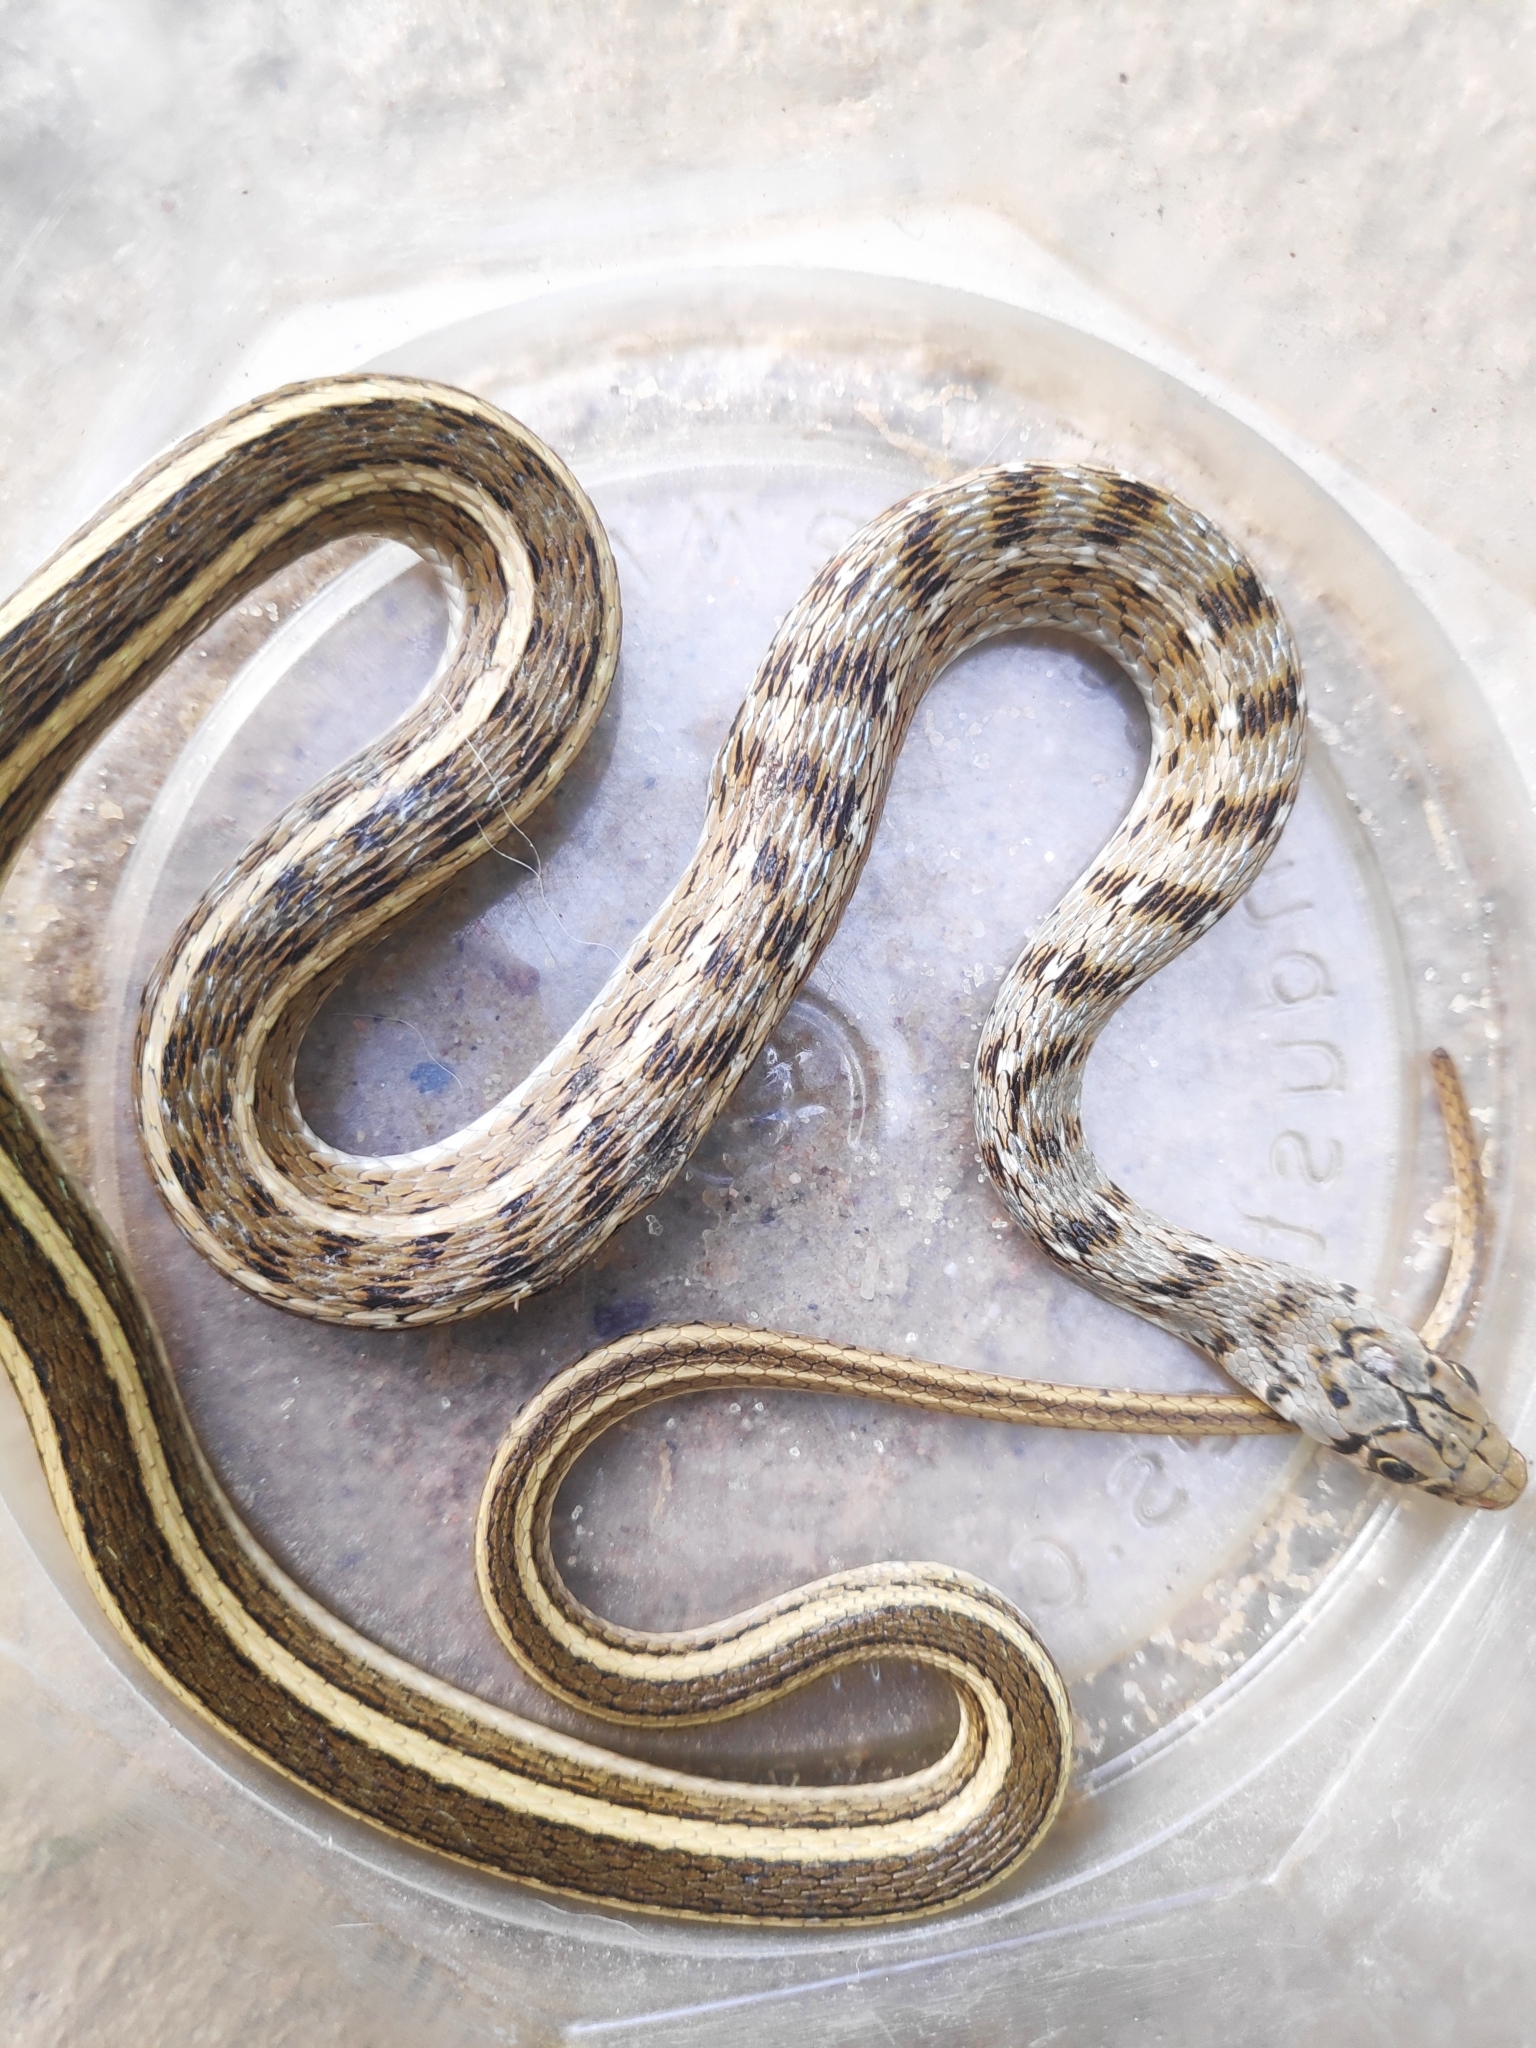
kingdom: Animalia
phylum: Chordata
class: Squamata
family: Colubridae
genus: Amphiesma
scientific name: Amphiesma stolatum
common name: Buff striped keelback
